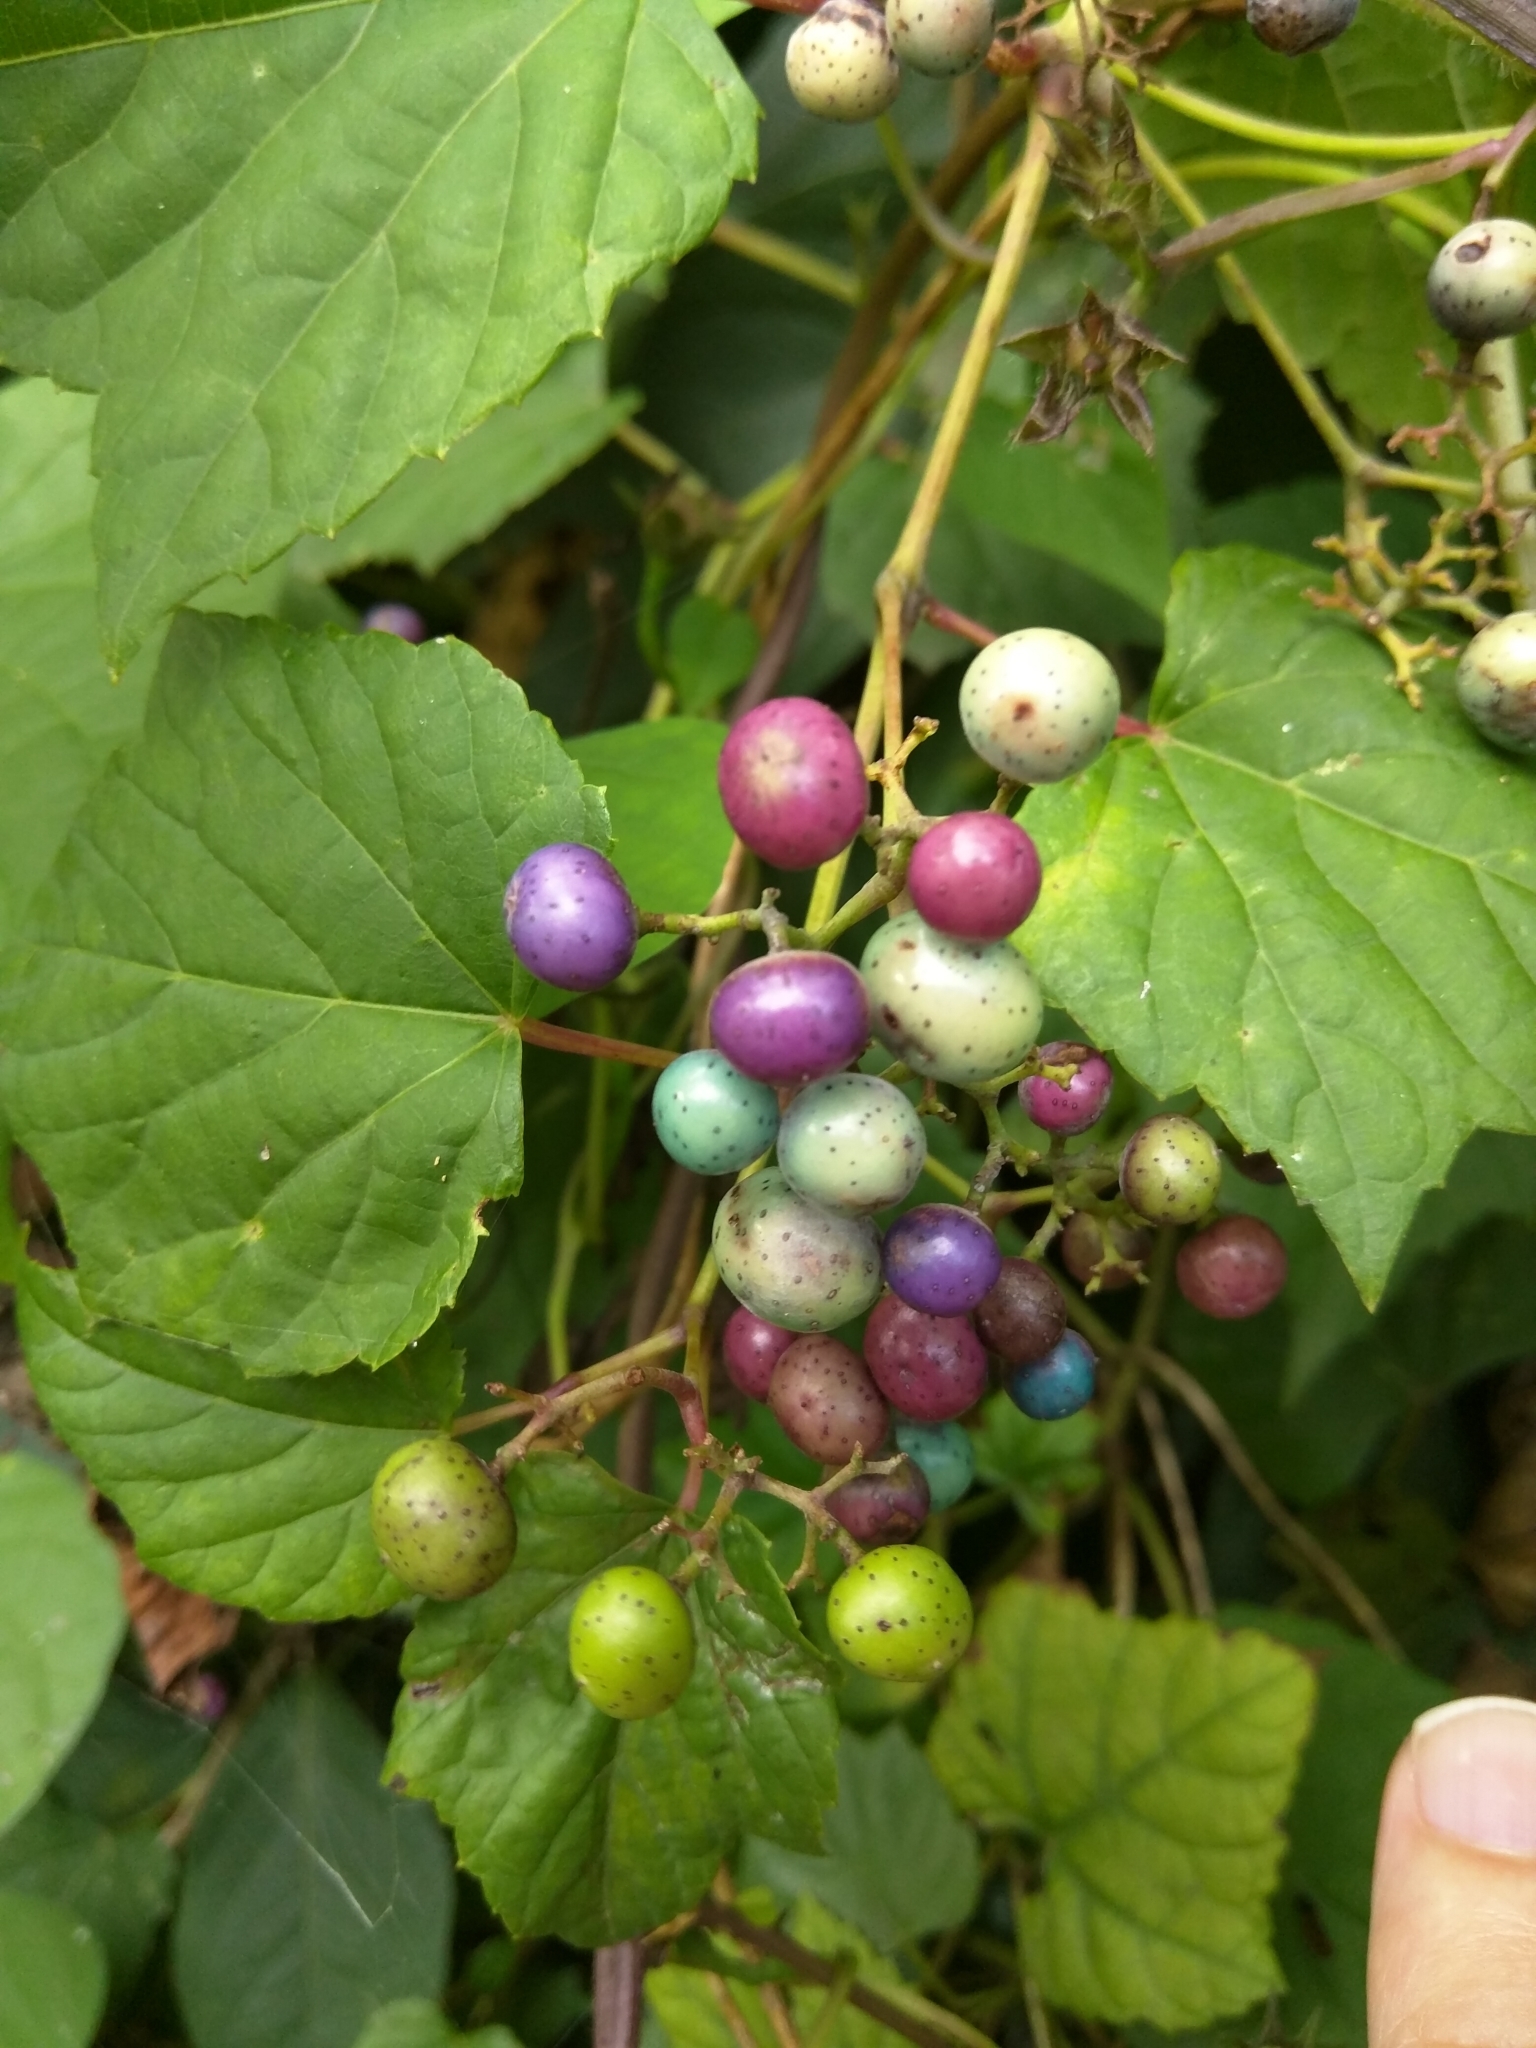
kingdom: Plantae
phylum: Tracheophyta
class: Magnoliopsida
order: Vitales
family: Vitaceae
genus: Ampelopsis
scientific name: Ampelopsis glandulosa
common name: Amur peppervine
